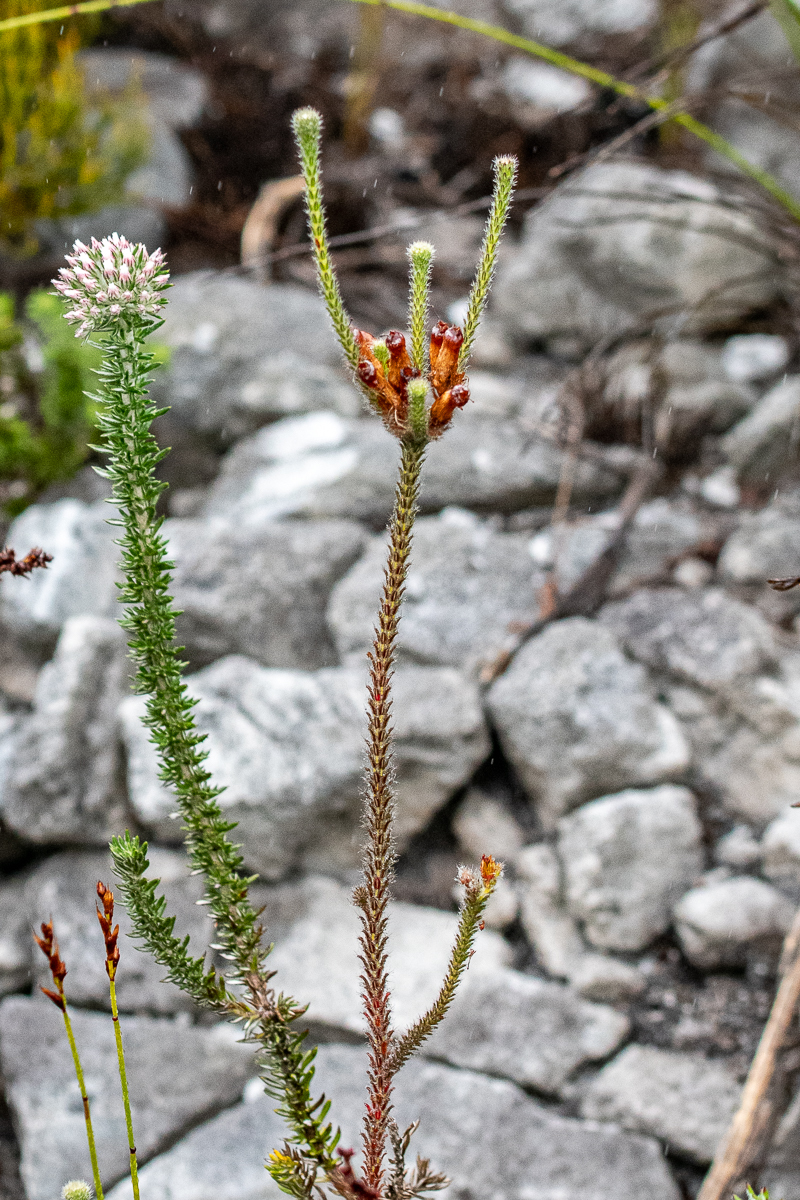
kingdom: Plantae
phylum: Tracheophyta
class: Magnoliopsida
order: Ericales
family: Ericaceae
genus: Erica
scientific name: Erica massonii
